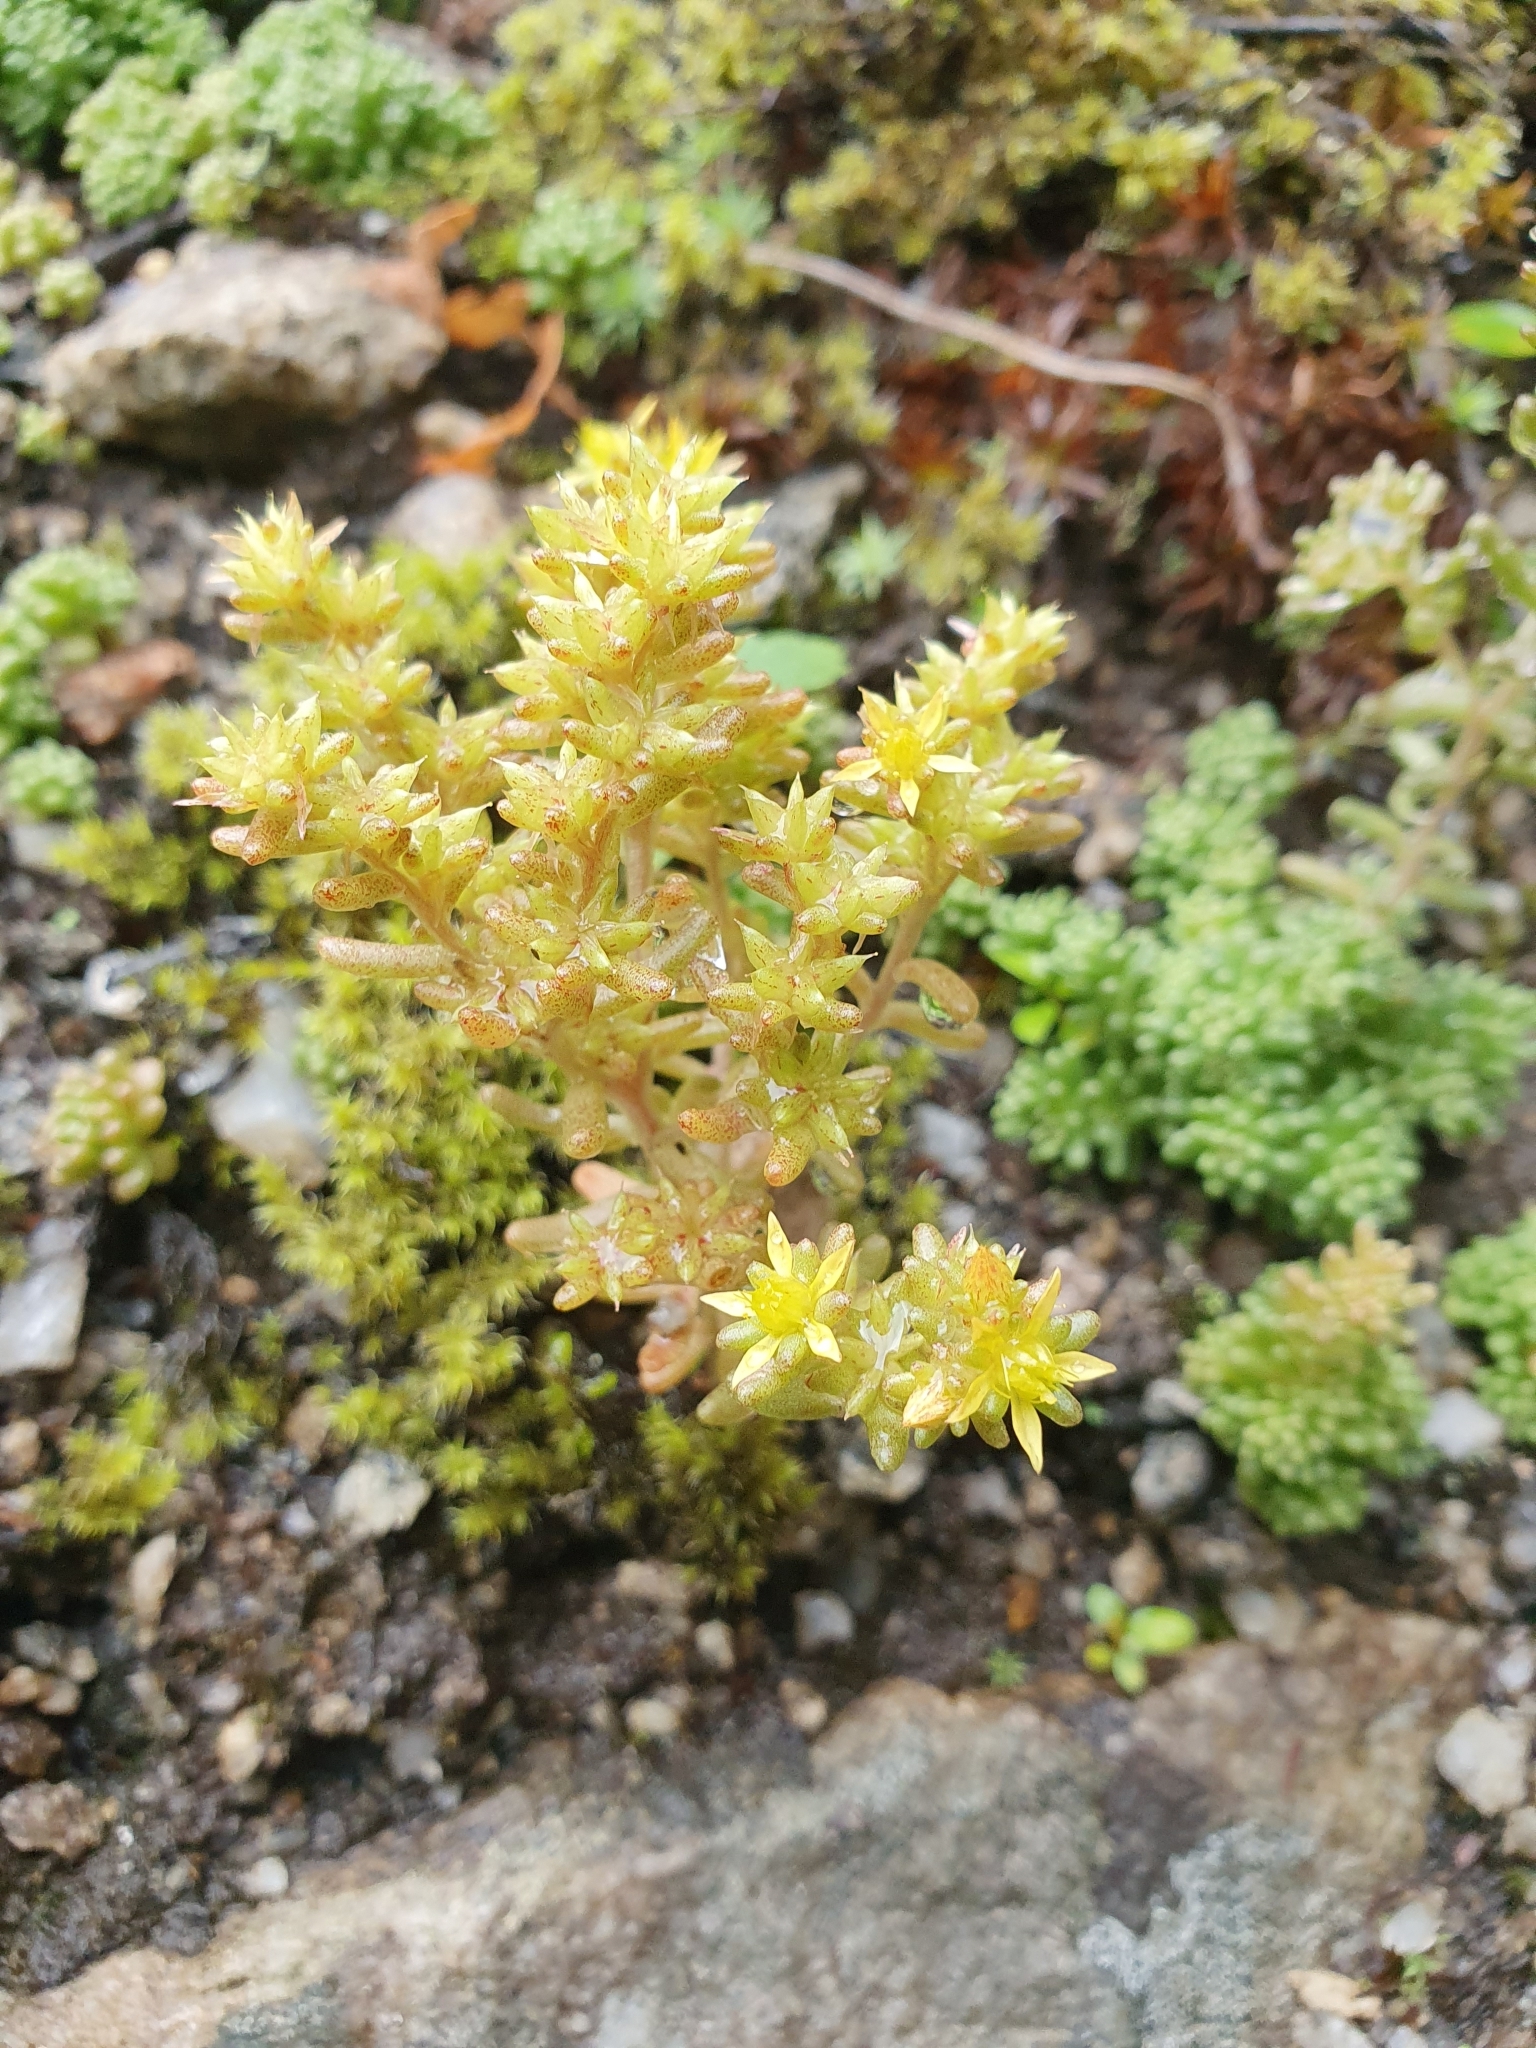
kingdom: Plantae
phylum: Tracheophyta
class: Magnoliopsida
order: Saxifragales
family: Crassulaceae
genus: Sedum
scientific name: Sedum annuum
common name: Annual stonecrop
